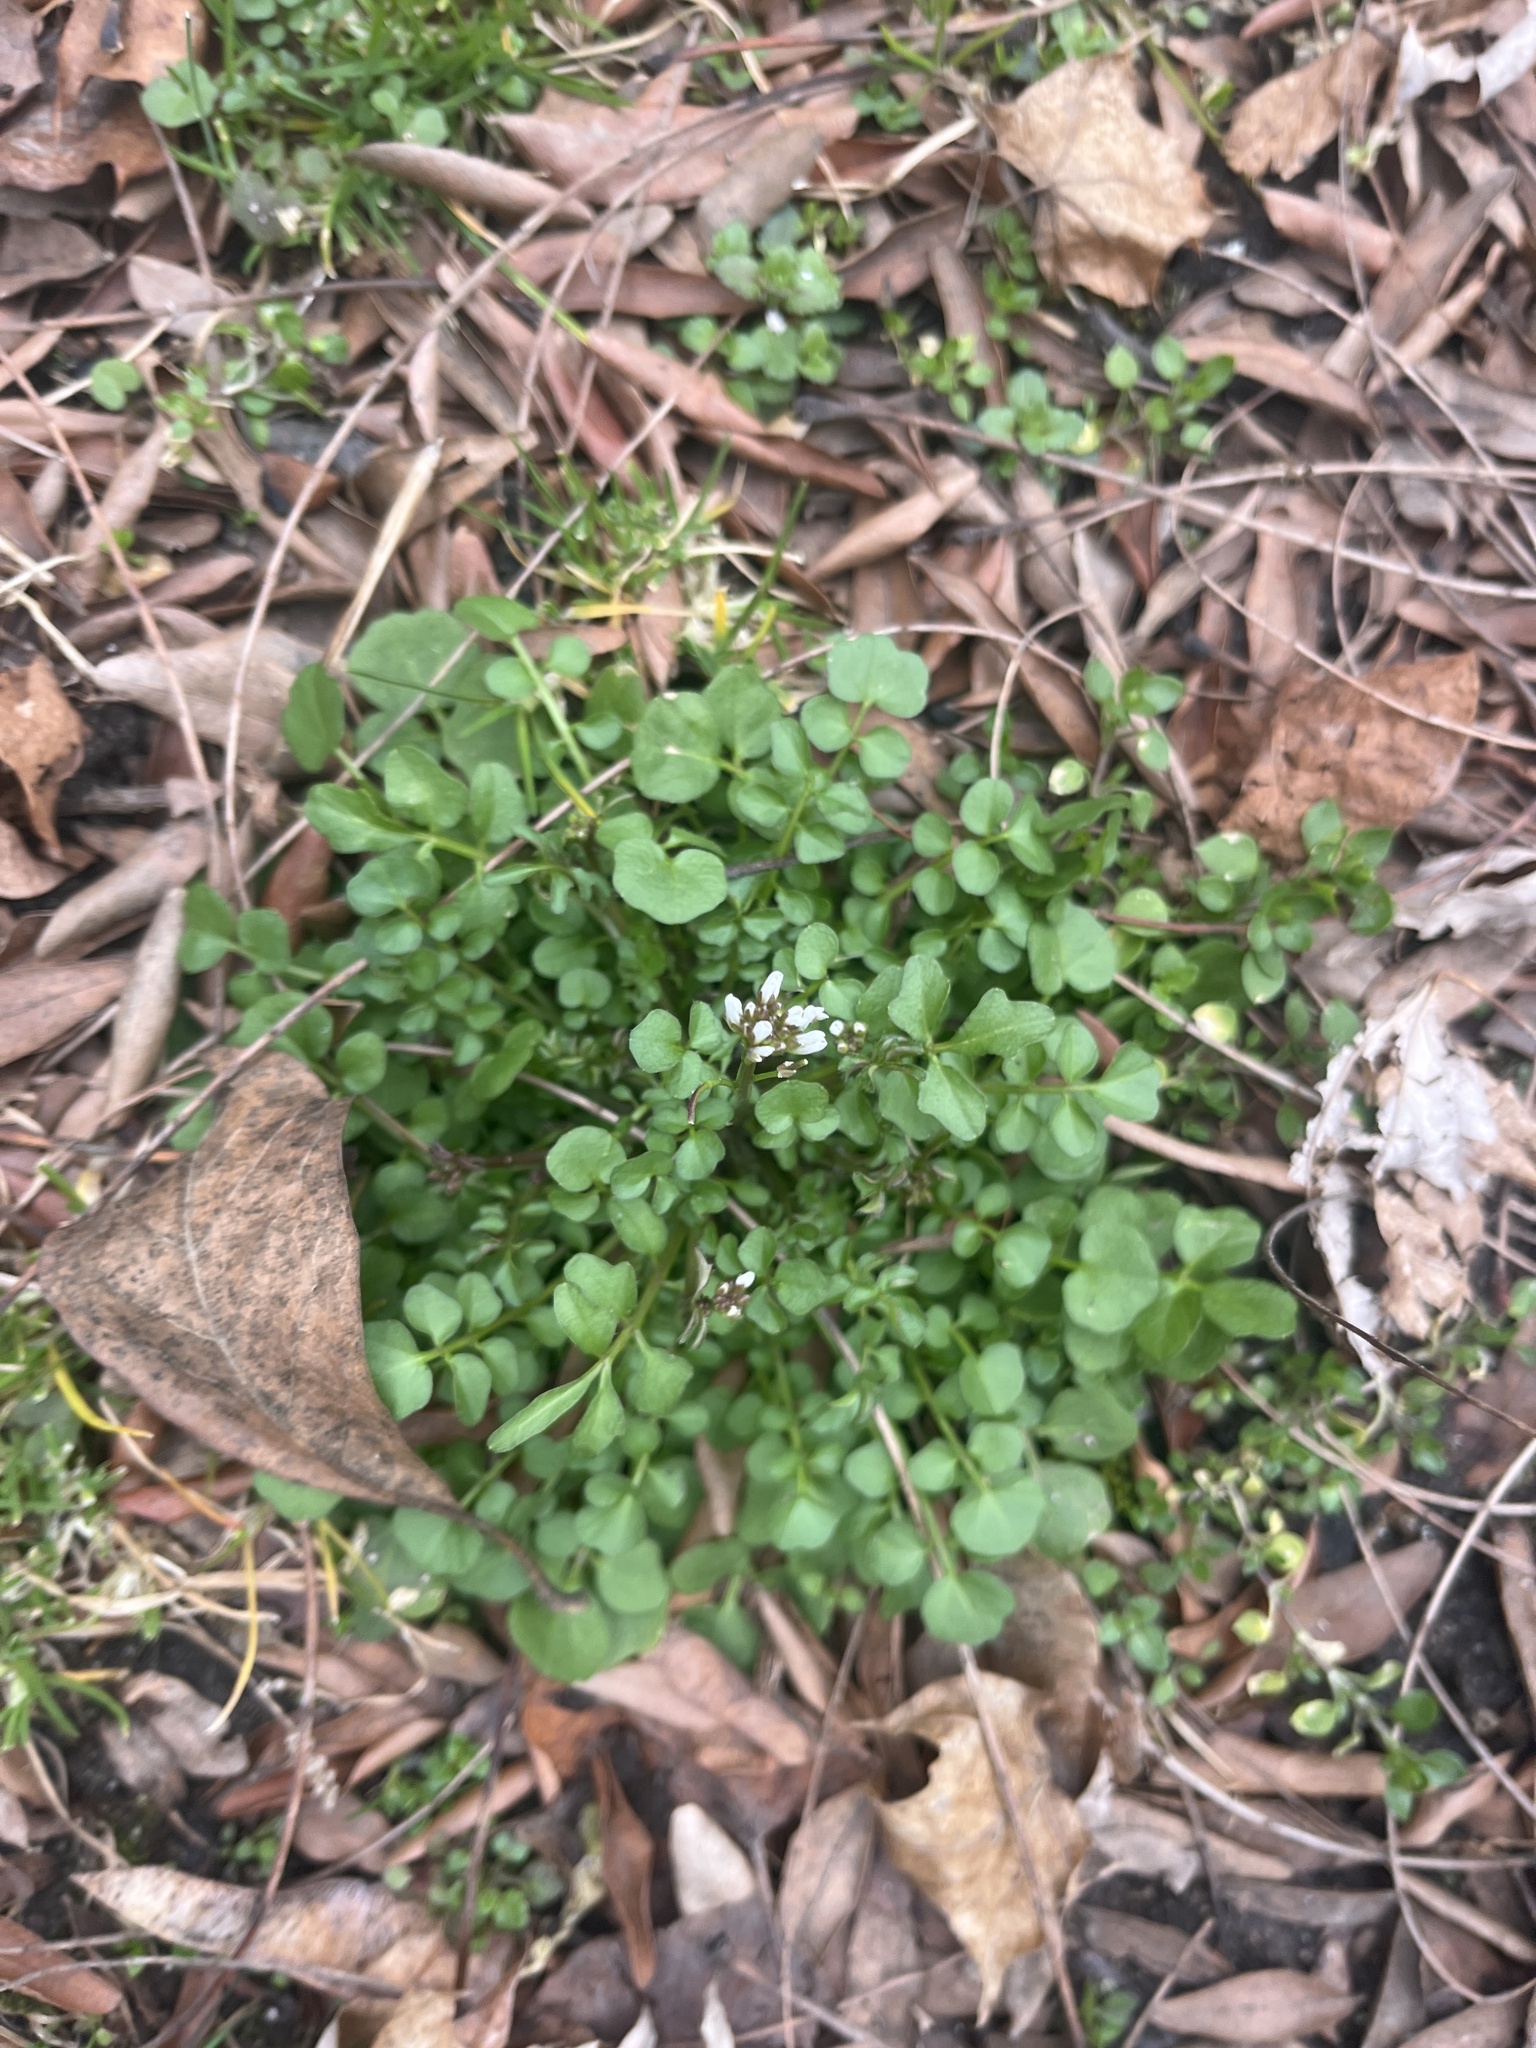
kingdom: Plantae
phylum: Tracheophyta
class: Magnoliopsida
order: Brassicales
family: Brassicaceae
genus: Cardamine
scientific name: Cardamine hirsuta
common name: Hairy bittercress
